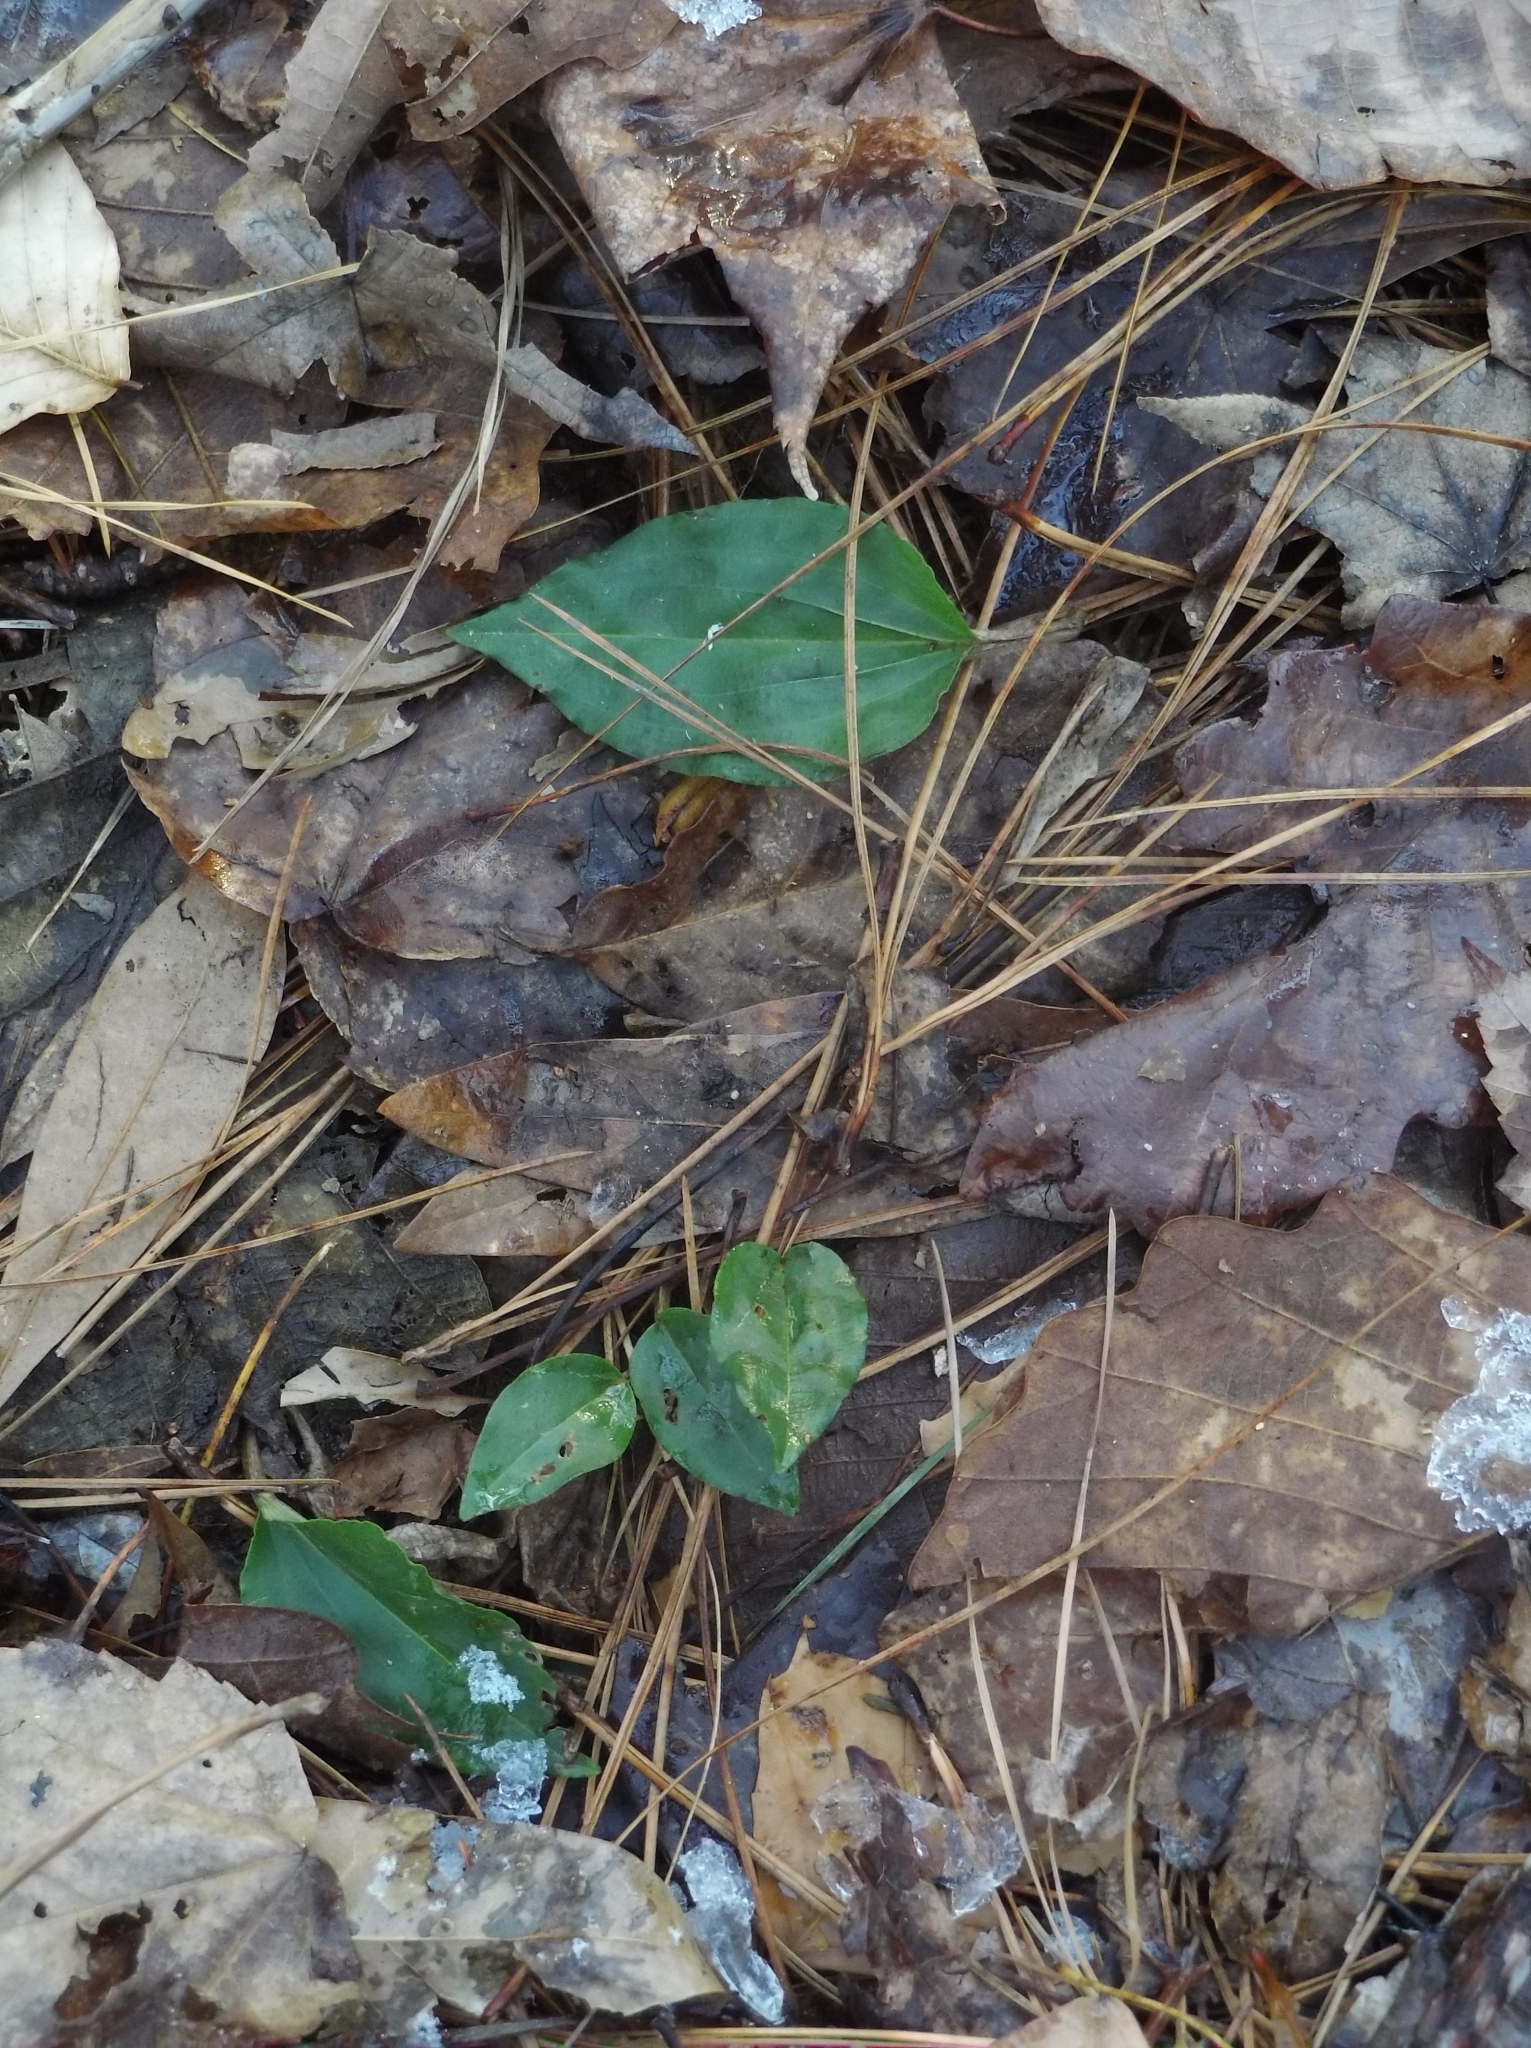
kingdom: Plantae
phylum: Tracheophyta
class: Liliopsida
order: Asparagales
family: Orchidaceae
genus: Tipularia
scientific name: Tipularia discolor
